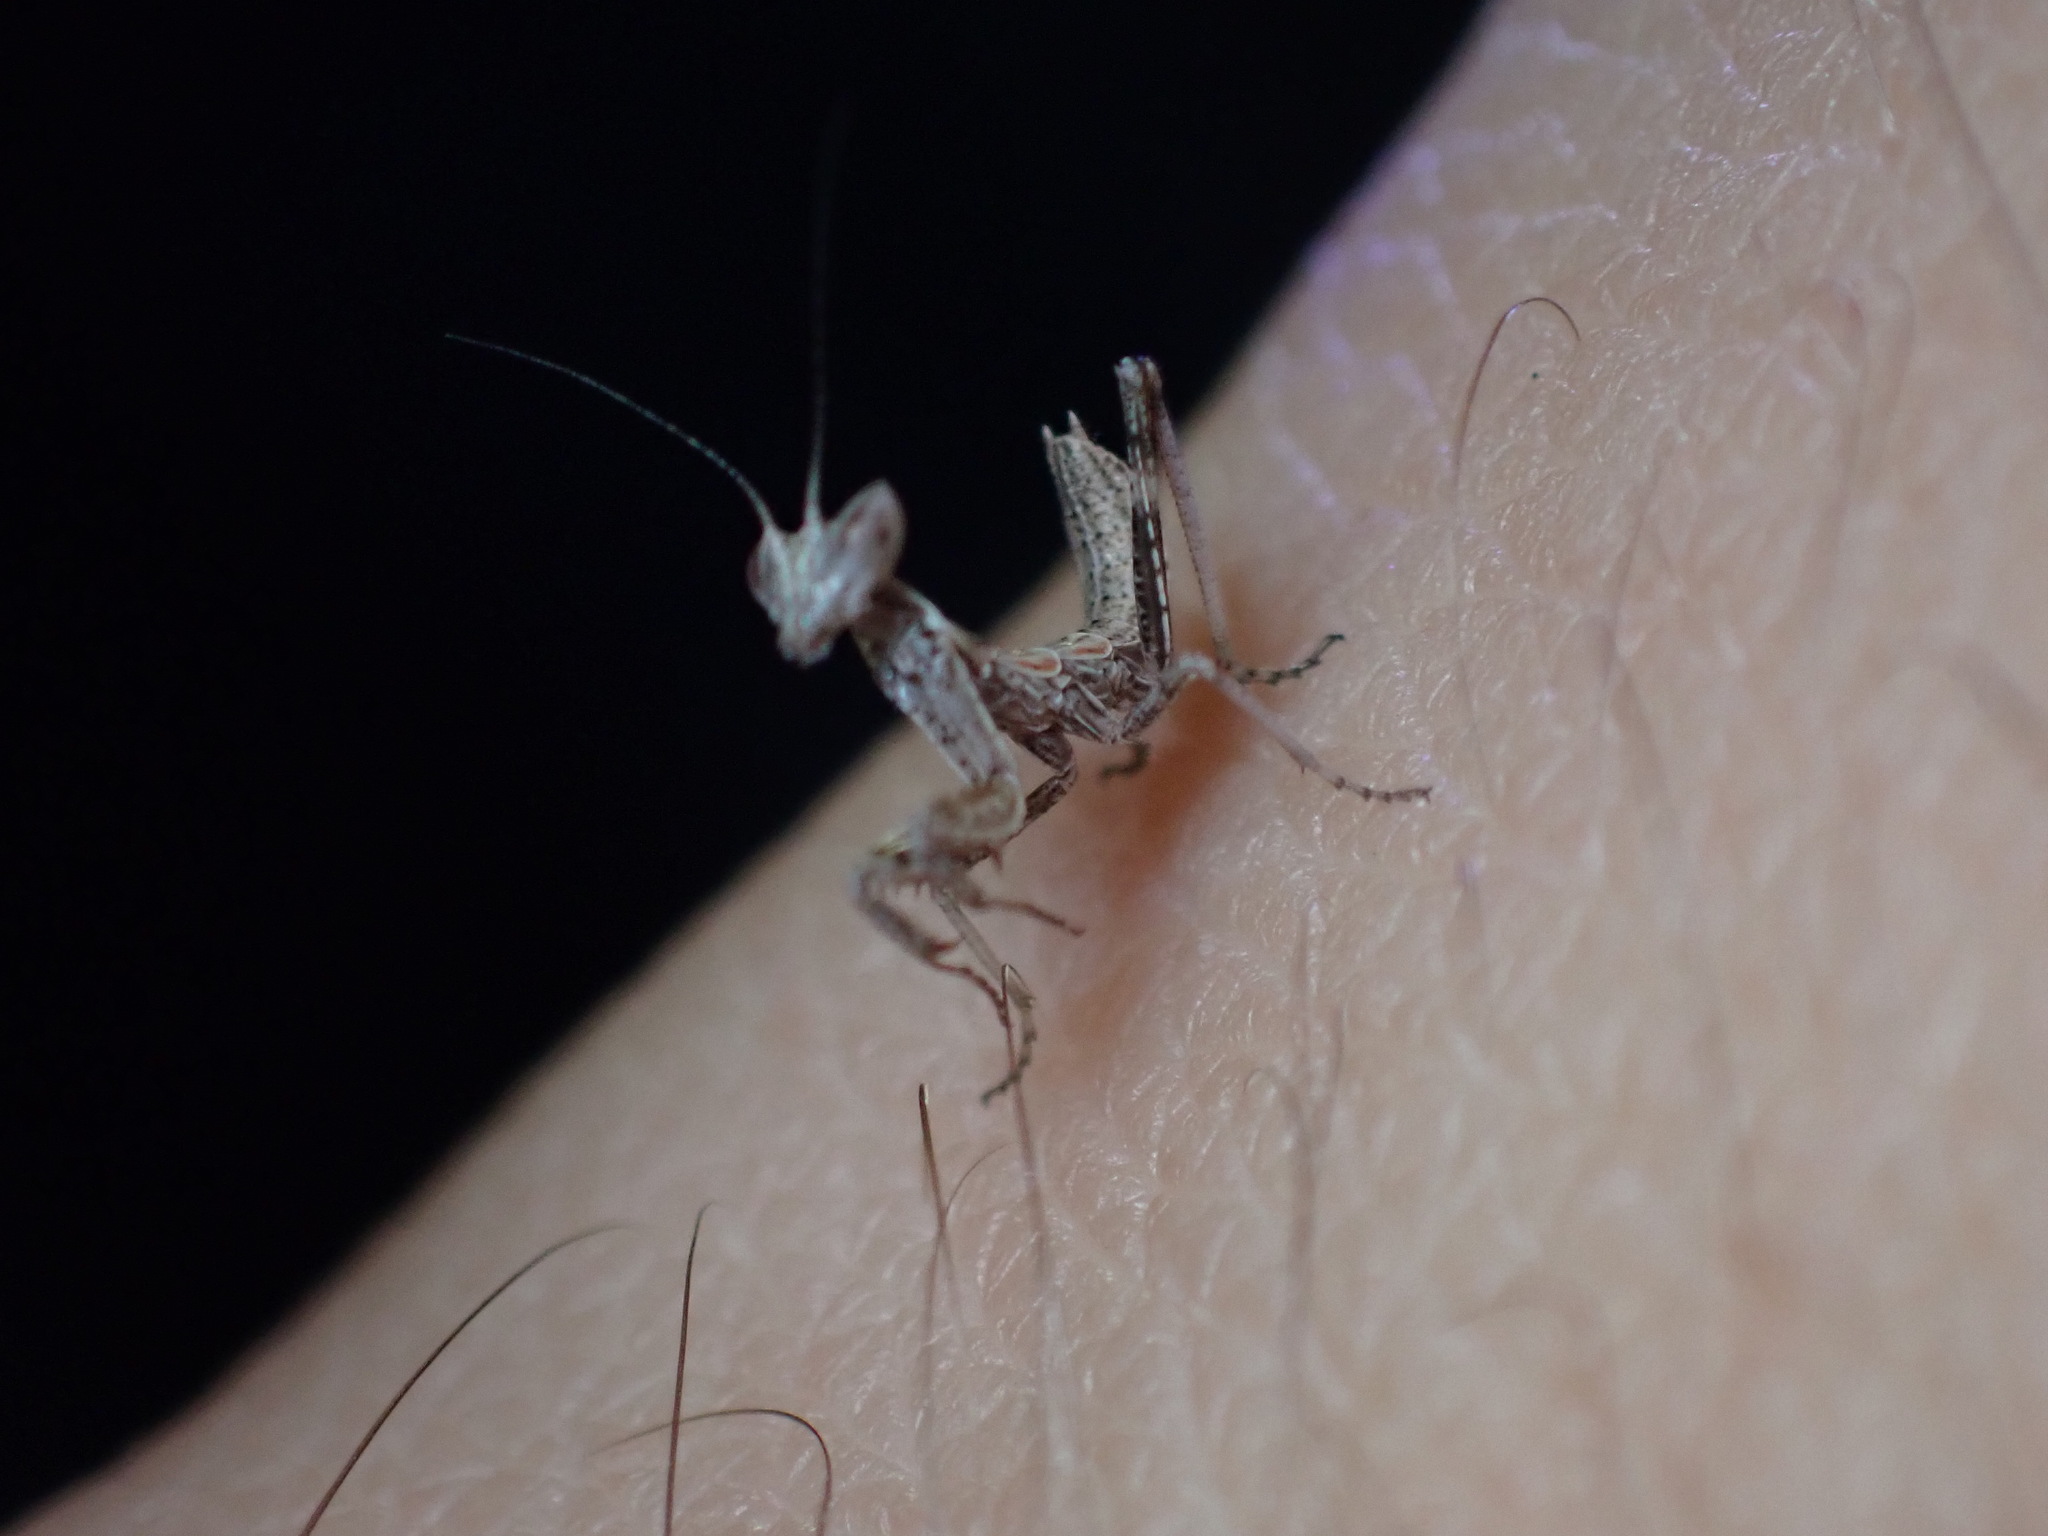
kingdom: Animalia
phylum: Arthropoda
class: Insecta
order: Mantodea
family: Amelidae
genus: Ameles
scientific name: Ameles spallanzania
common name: European dwarf mantis
